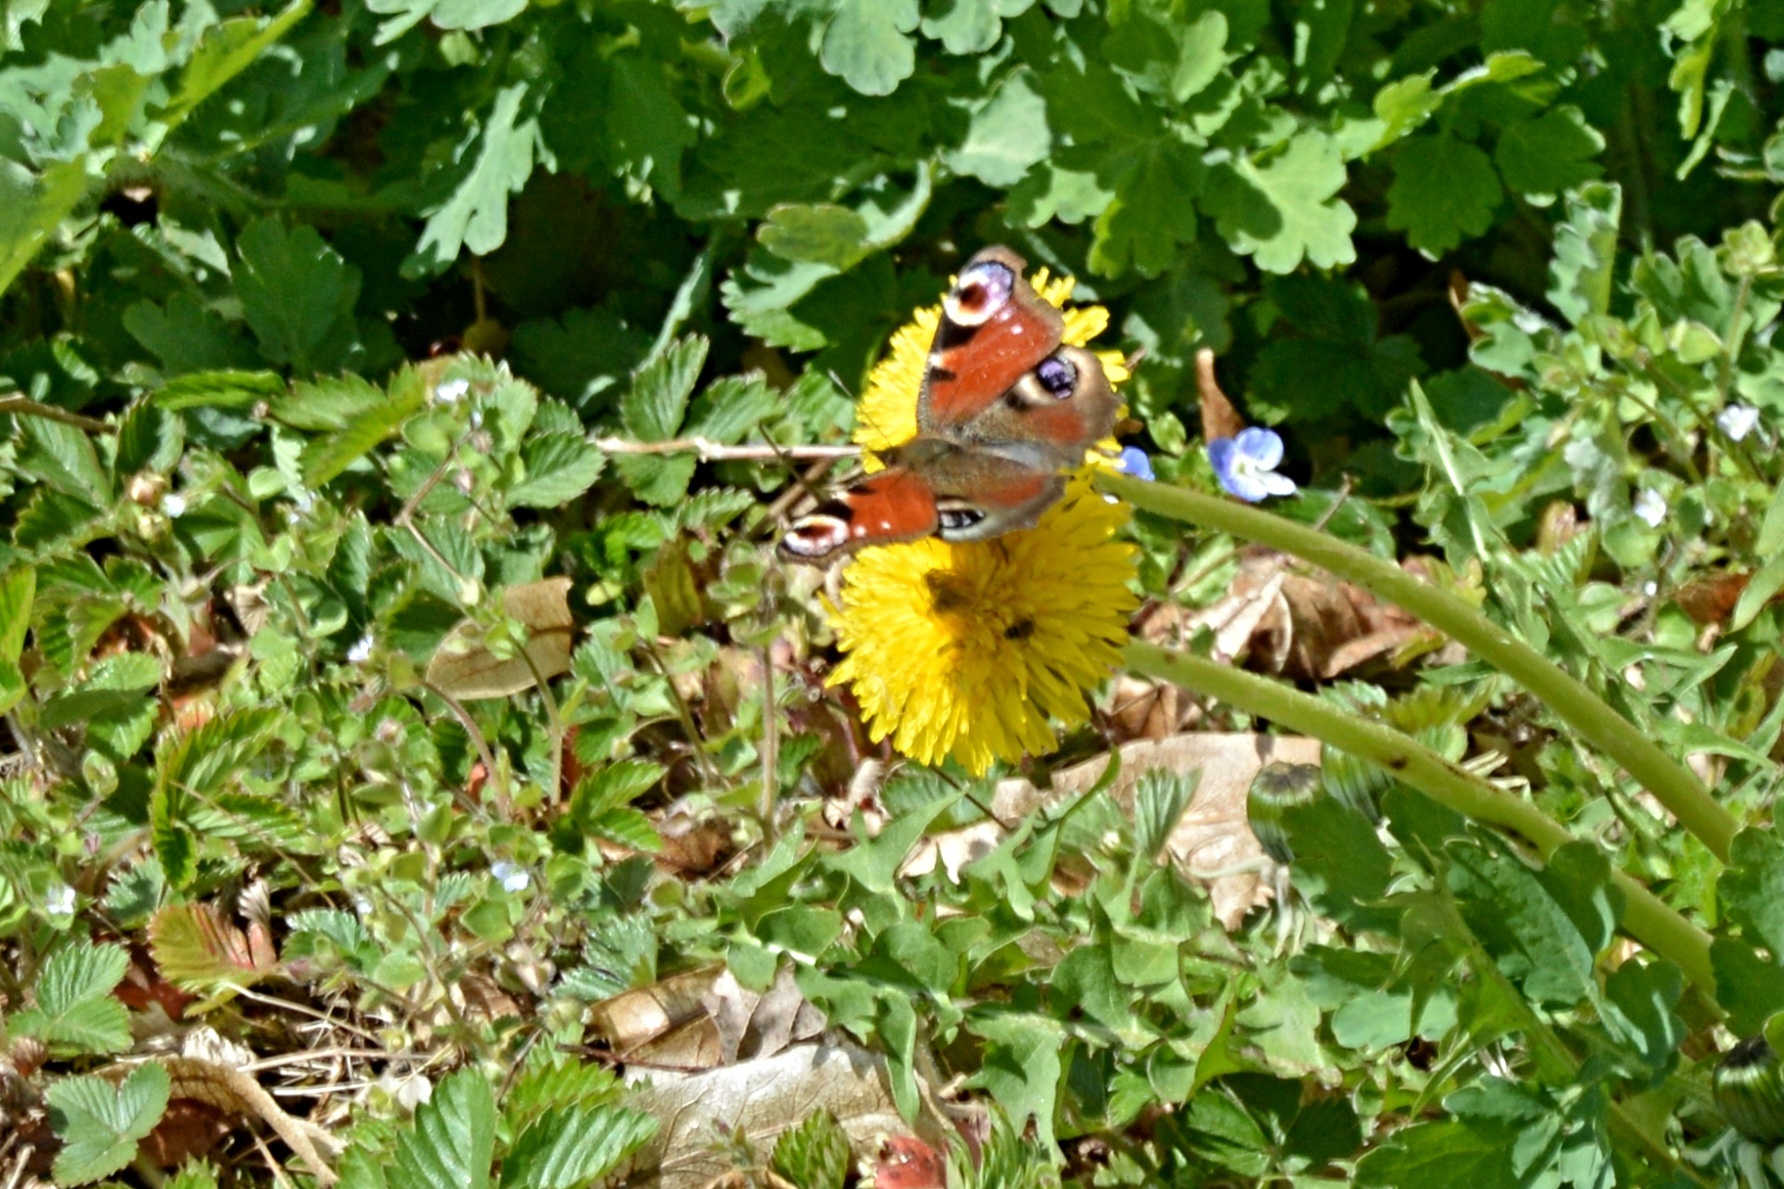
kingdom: Animalia
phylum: Arthropoda
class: Insecta
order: Lepidoptera
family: Nymphalidae
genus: Aglais
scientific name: Aglais io
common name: Peacock
